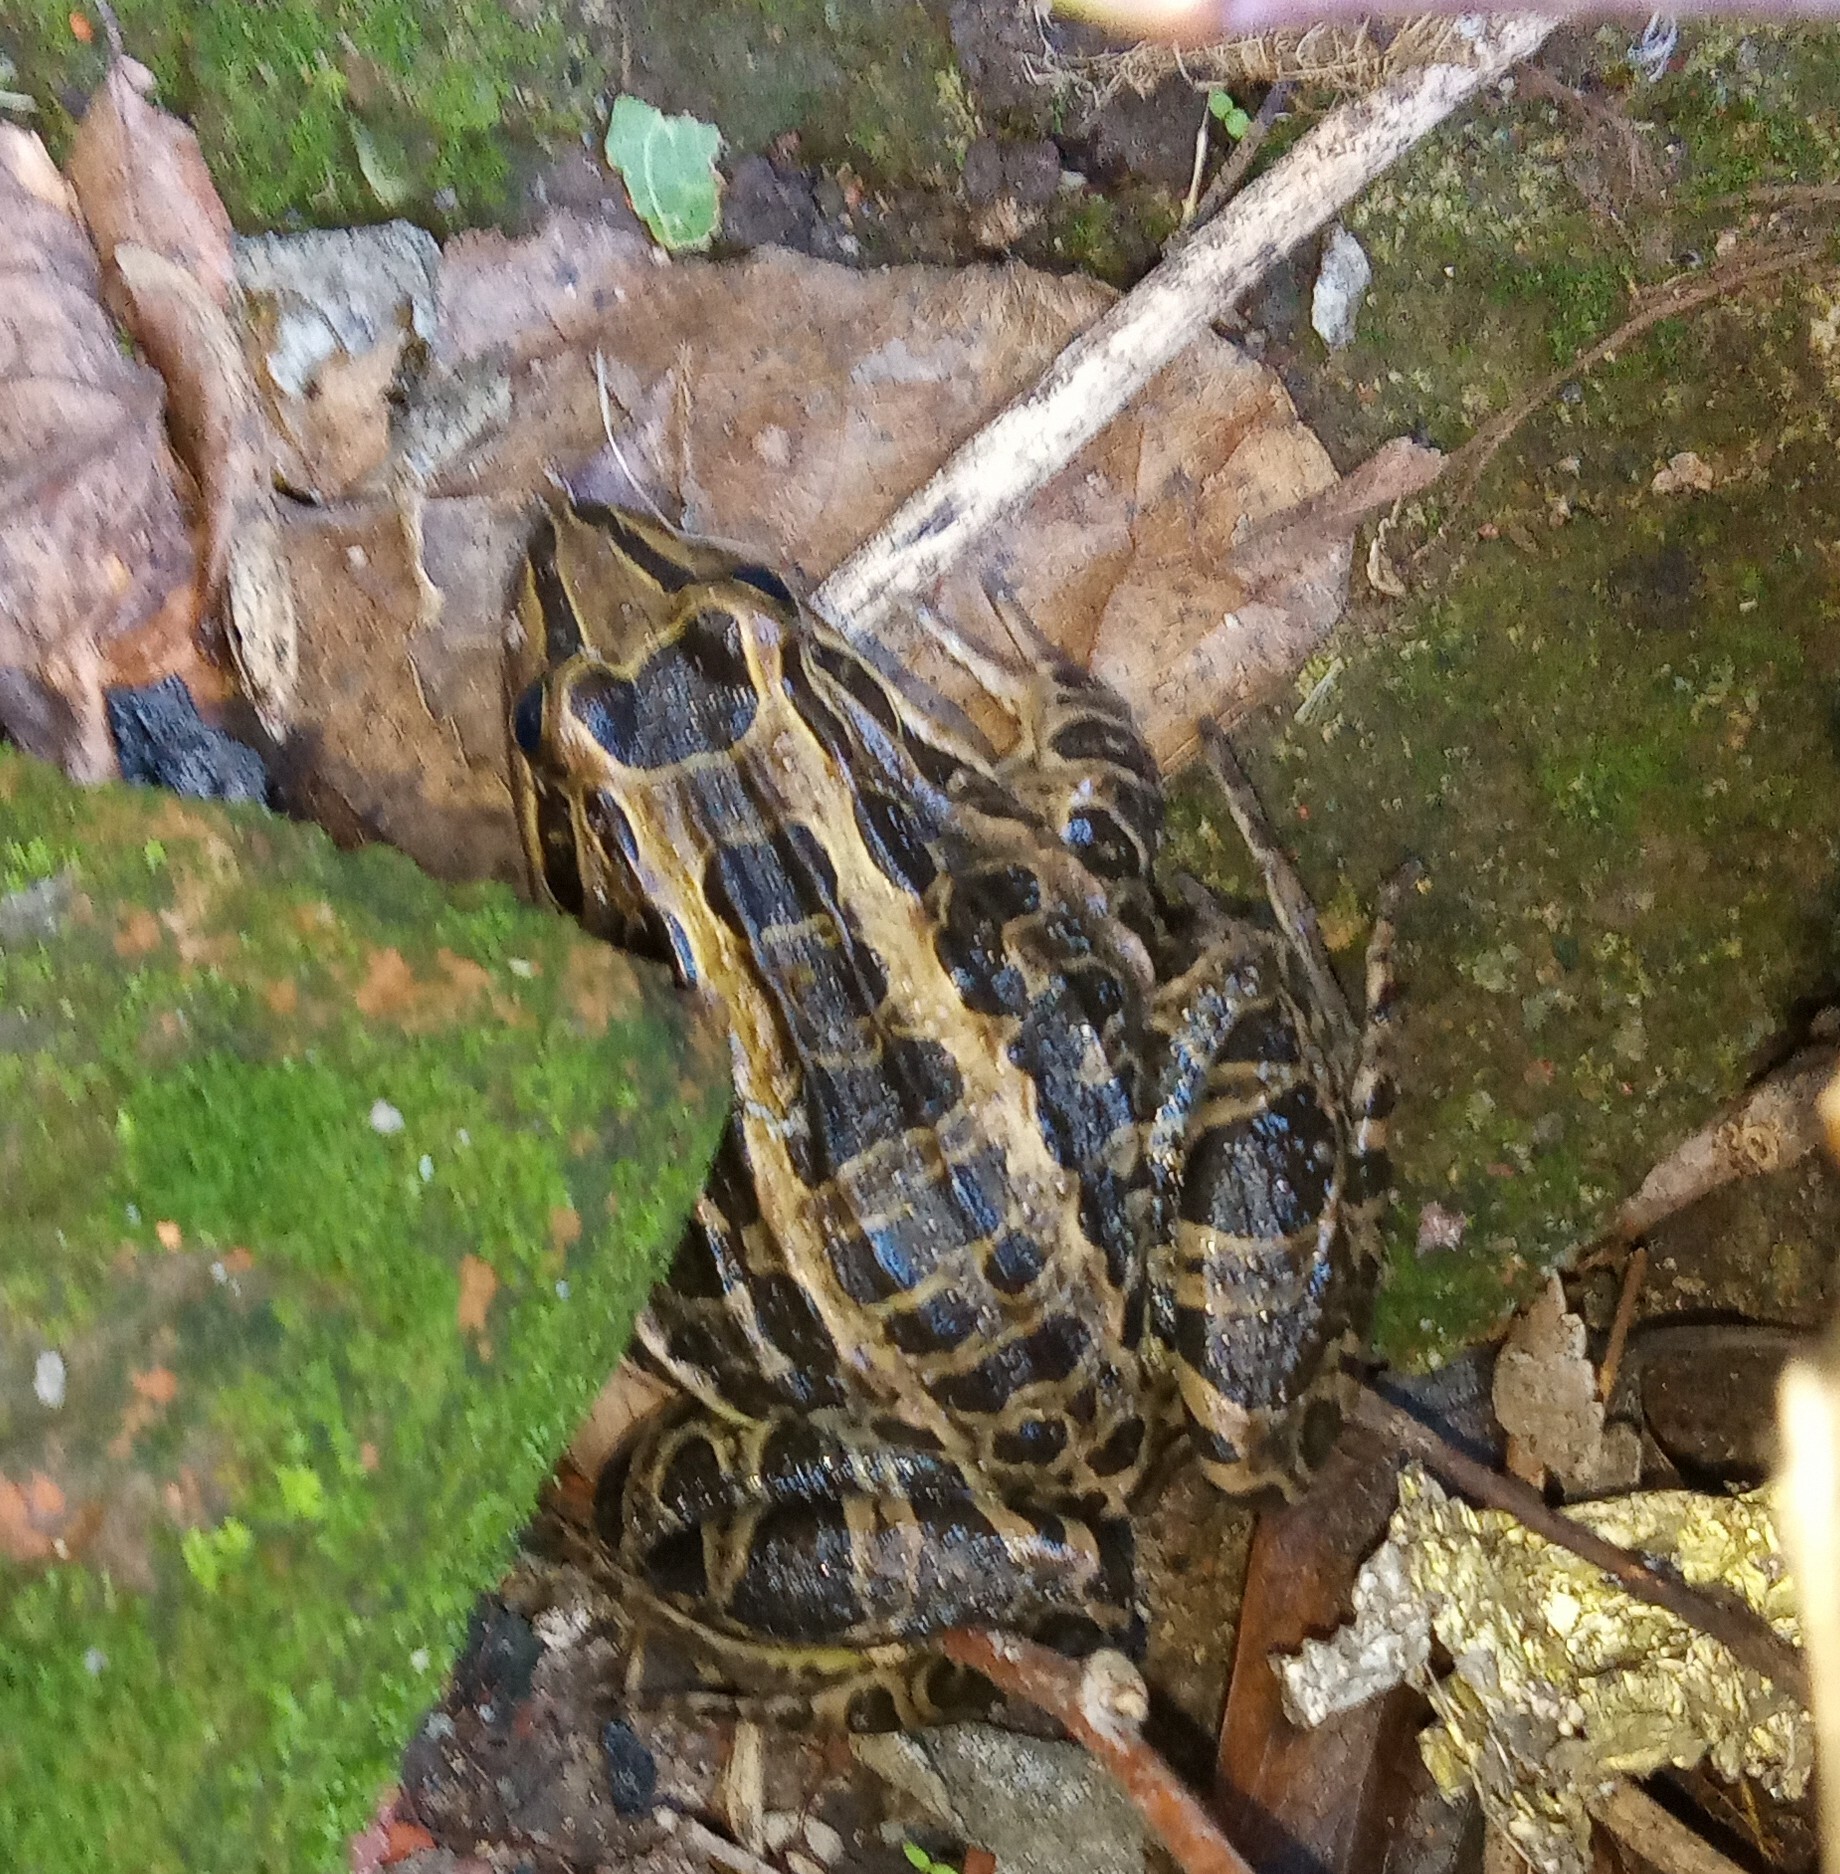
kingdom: Animalia
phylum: Chordata
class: Amphibia
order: Anura
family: Leptodactylidae
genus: Leptodactylus
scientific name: Leptodactylus luctator
